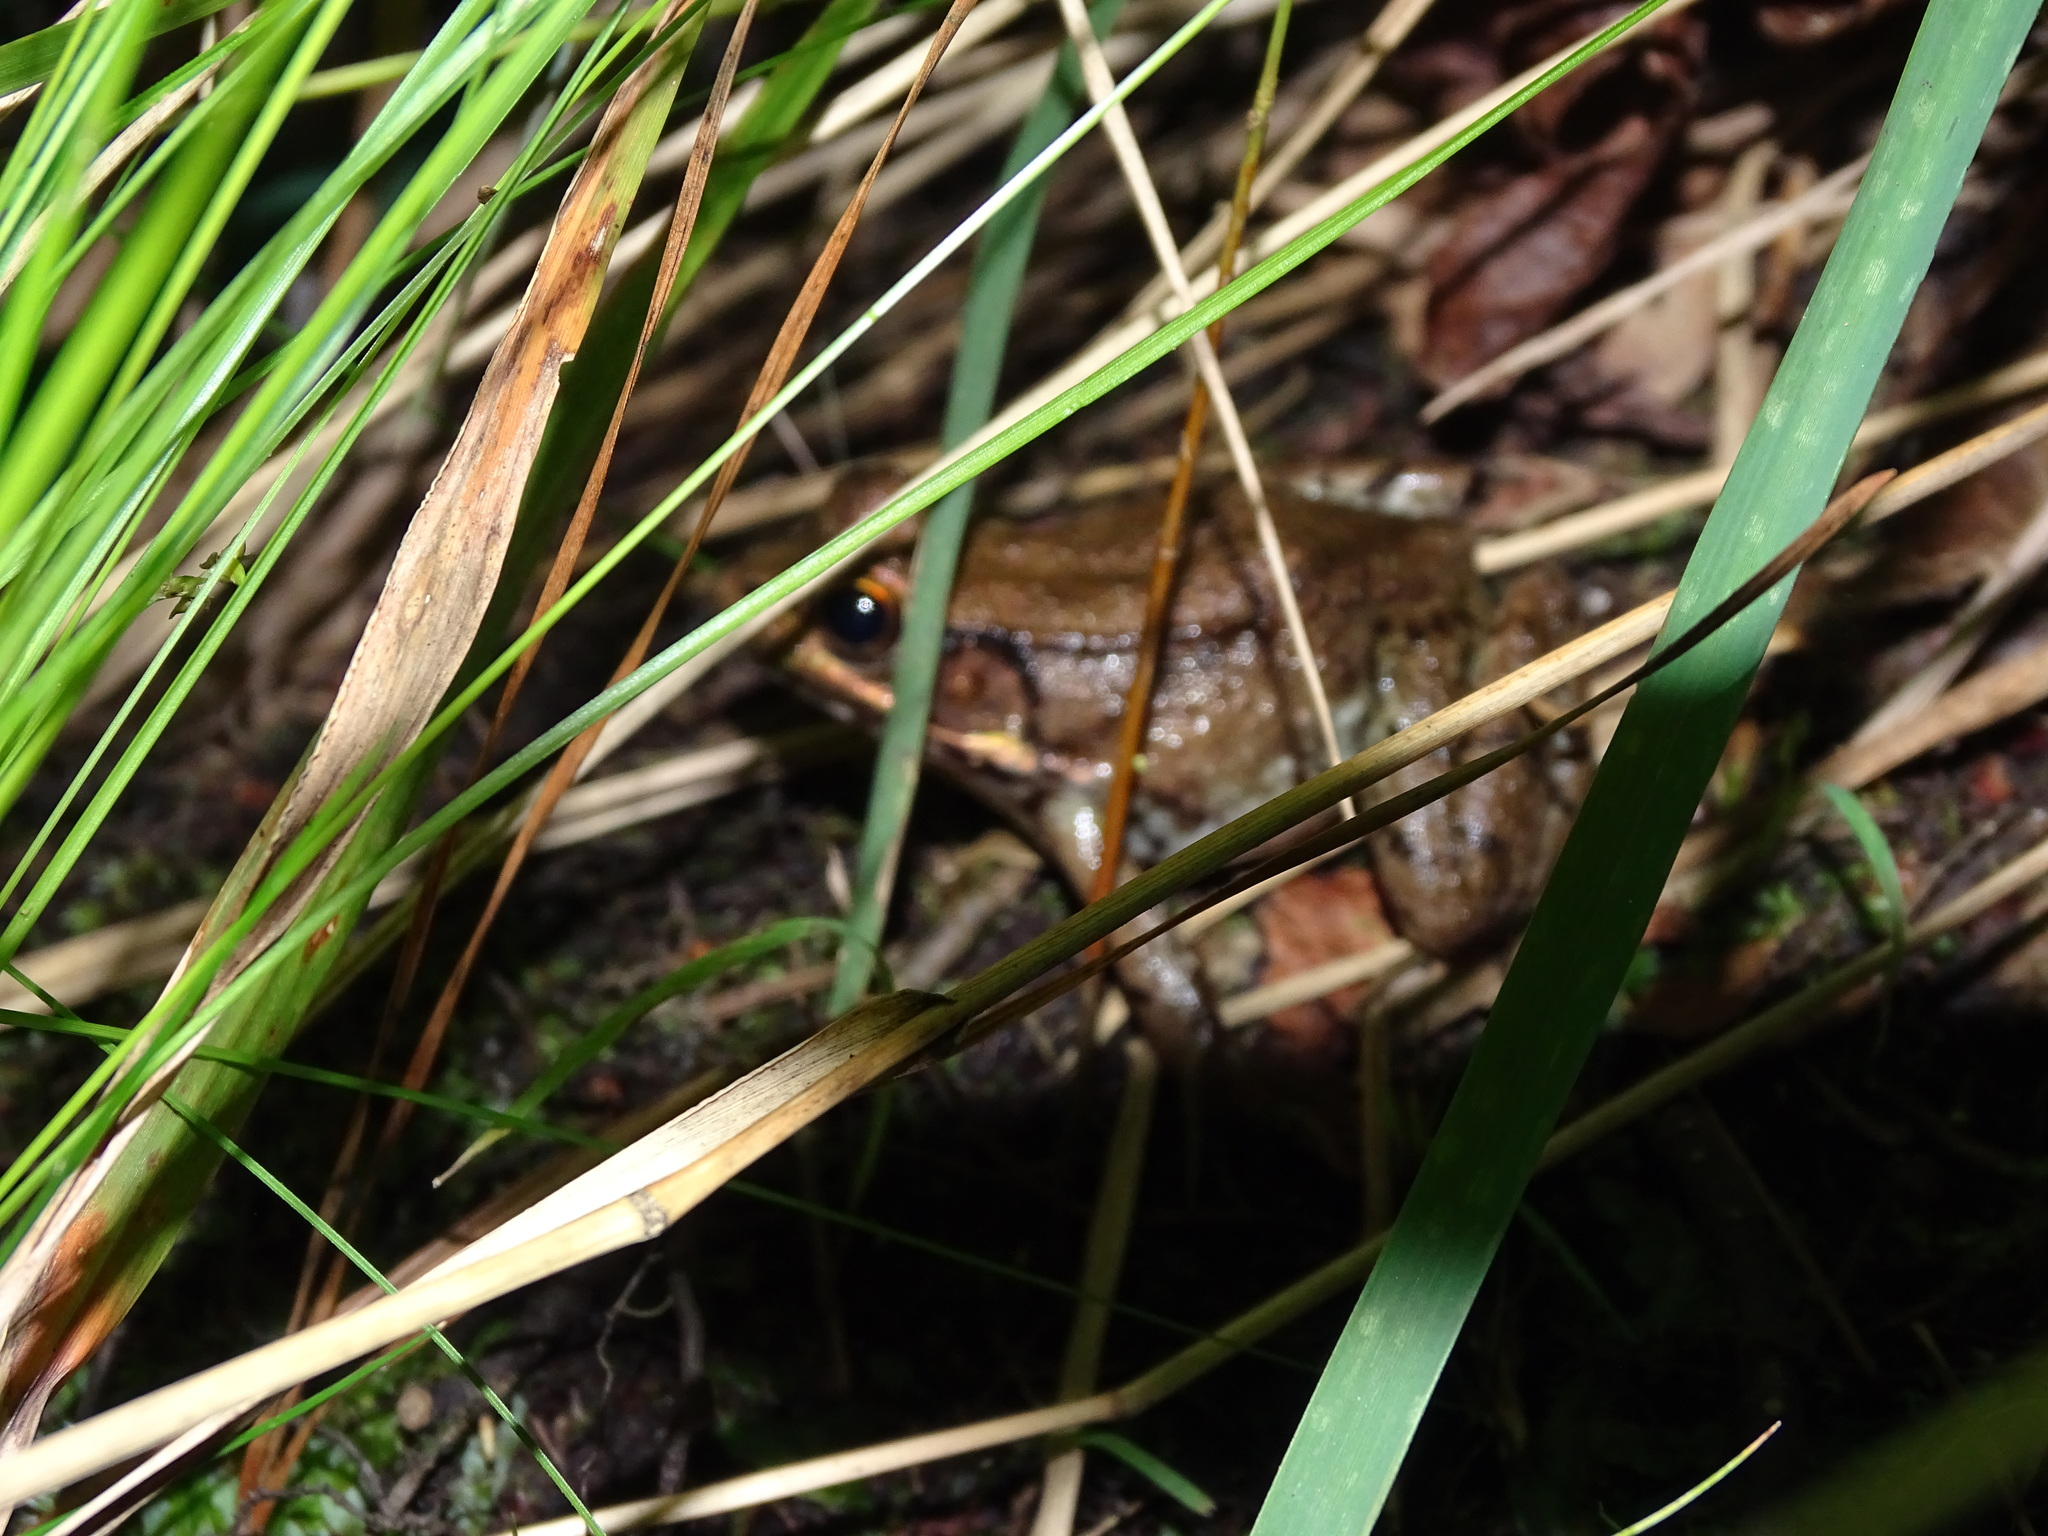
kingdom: Animalia
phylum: Chordata
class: Amphibia
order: Anura
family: Ranidae
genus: Lithobates
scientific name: Lithobates clamitans
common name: Green frog
